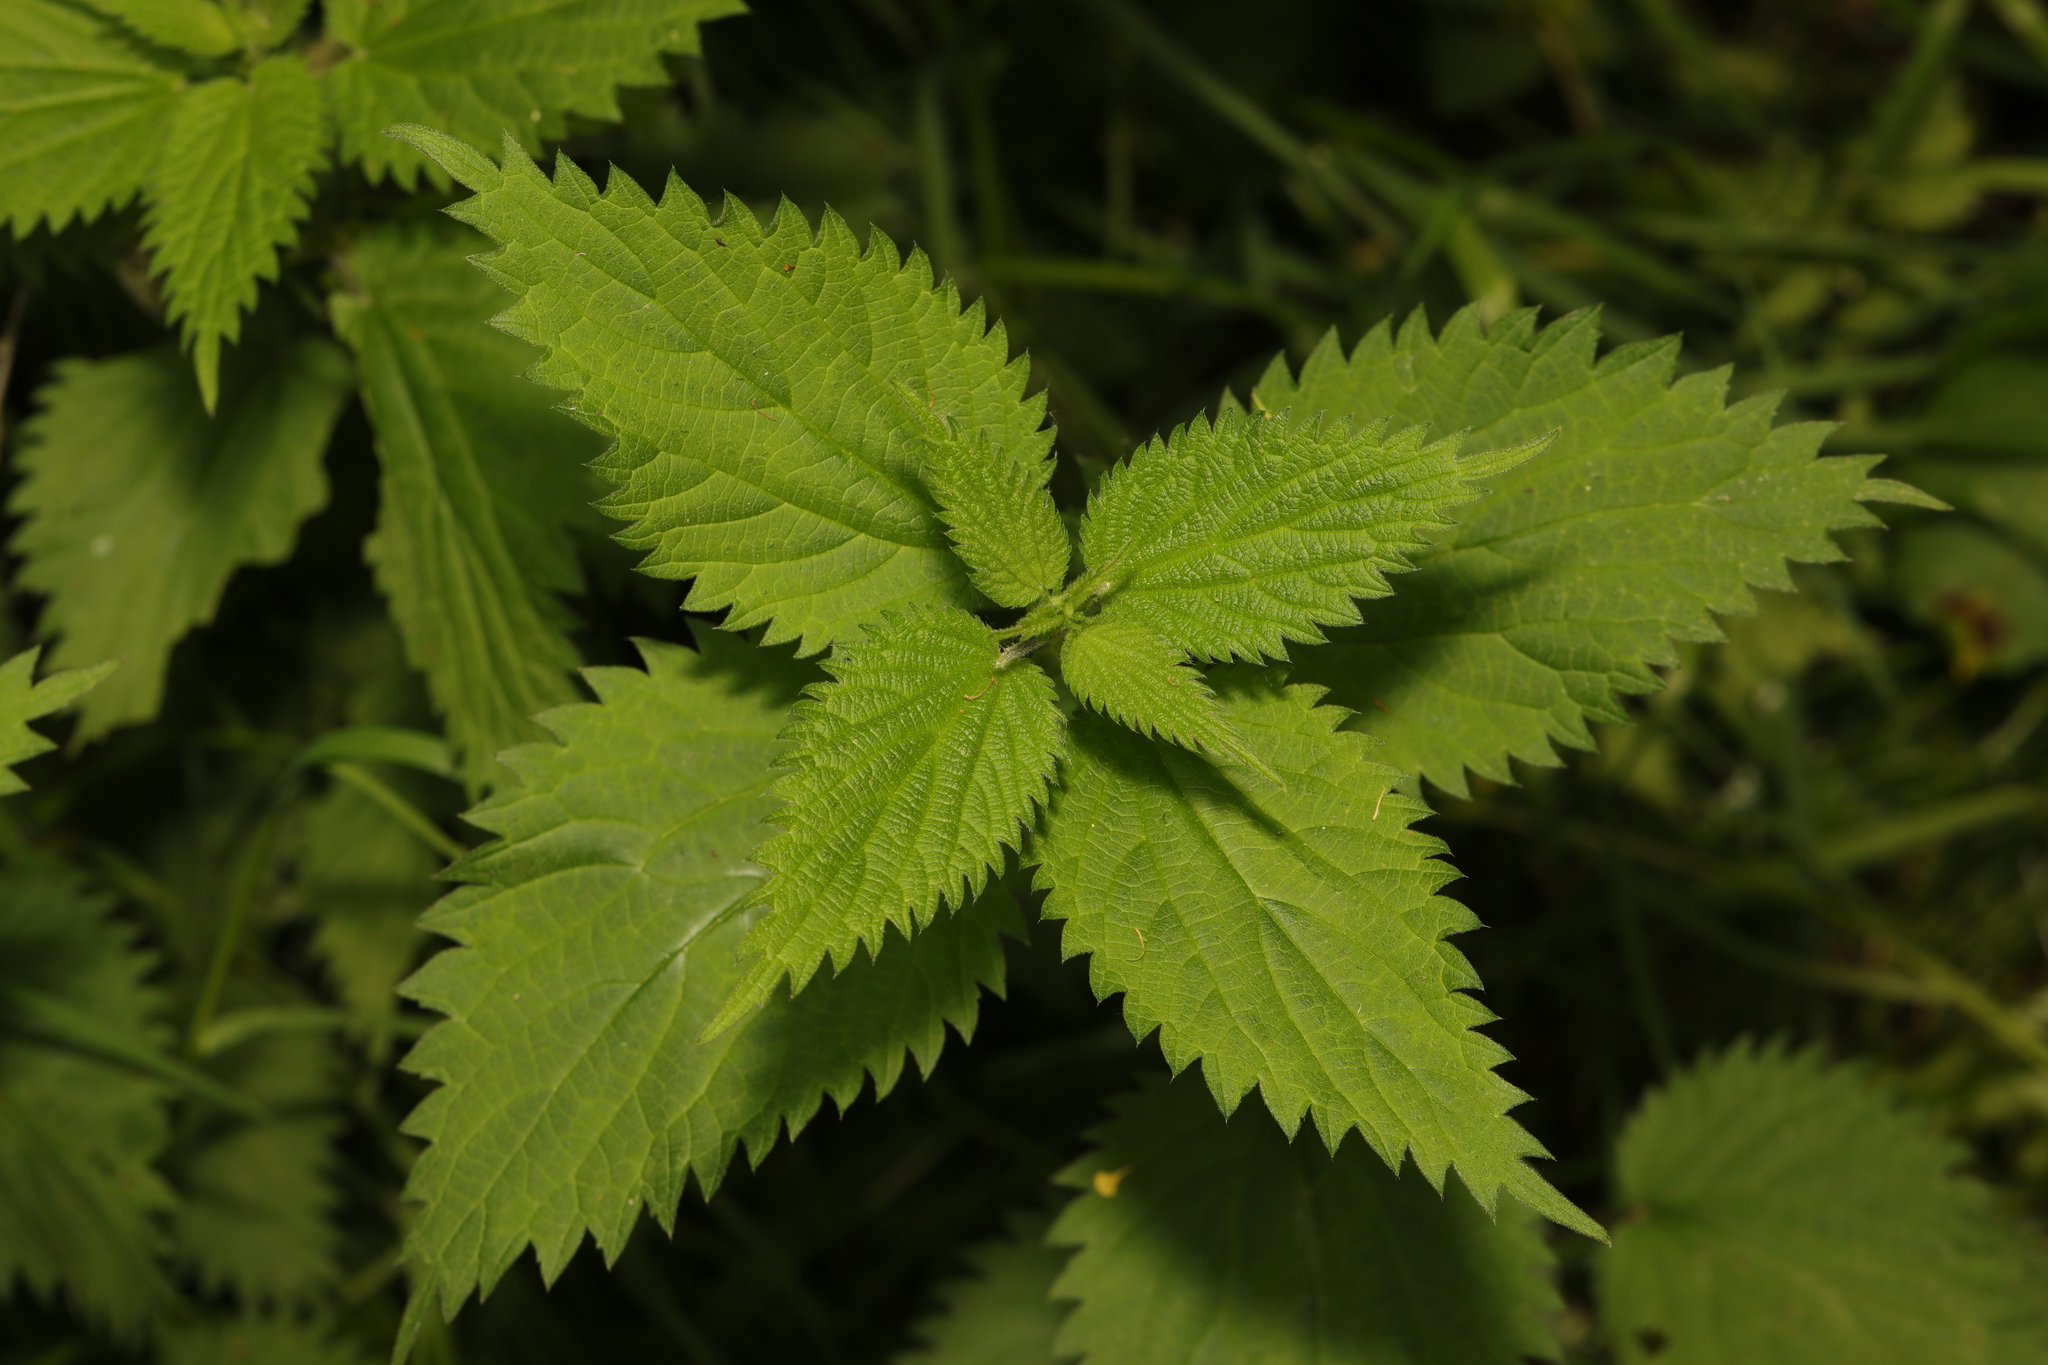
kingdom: Plantae
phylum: Tracheophyta
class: Magnoliopsida
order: Rosales
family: Urticaceae
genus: Urtica
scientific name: Urtica dioica
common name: Common nettle
